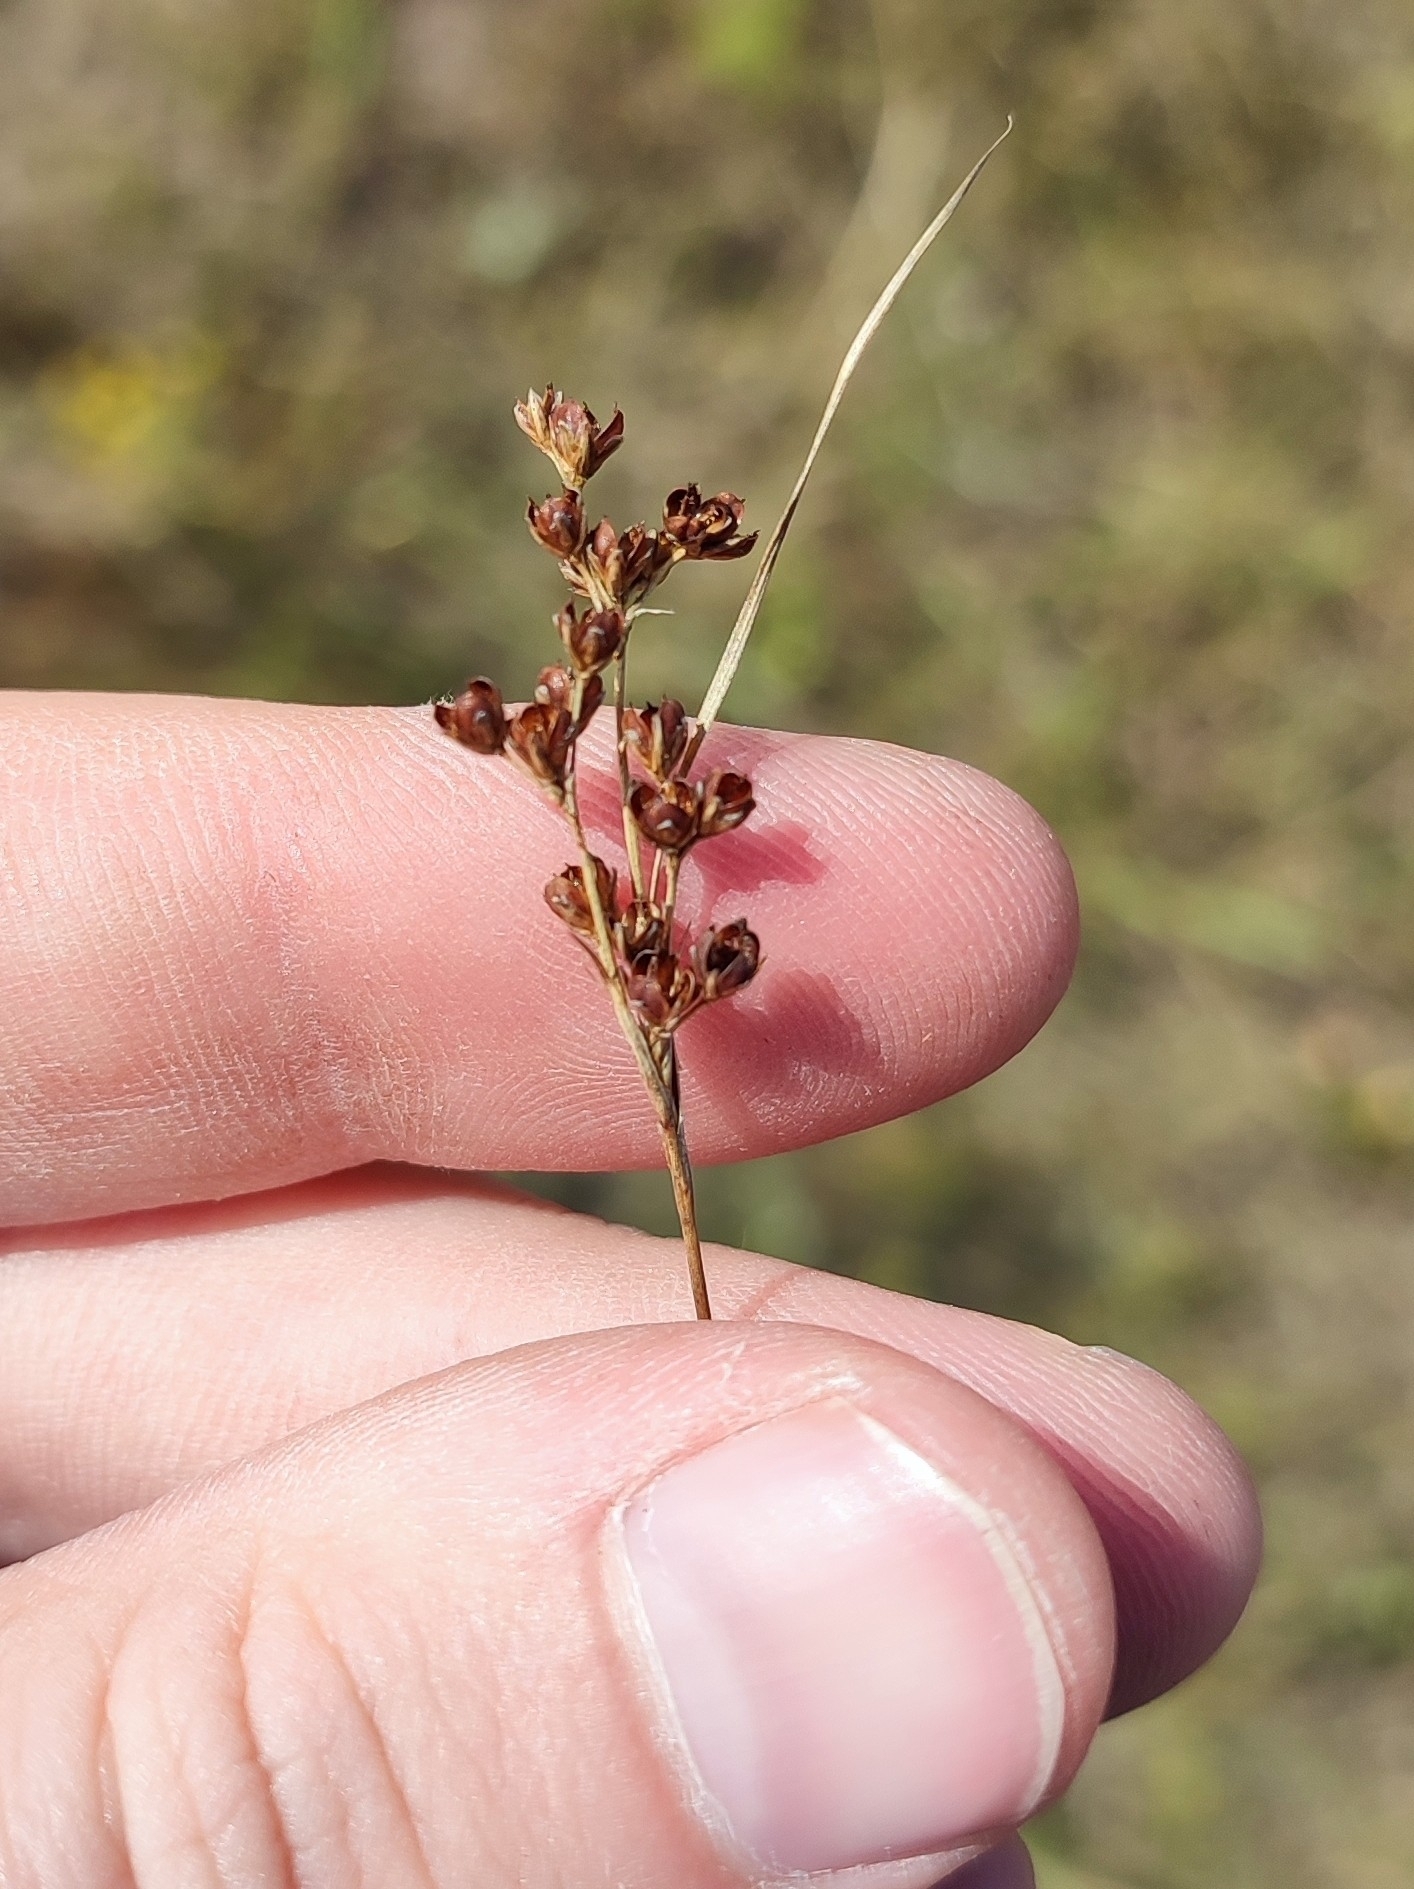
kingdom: Plantae
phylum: Tracheophyta
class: Liliopsida
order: Poales
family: Juncaceae
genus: Juncus
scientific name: Juncus compressus
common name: Round-fruited rush
